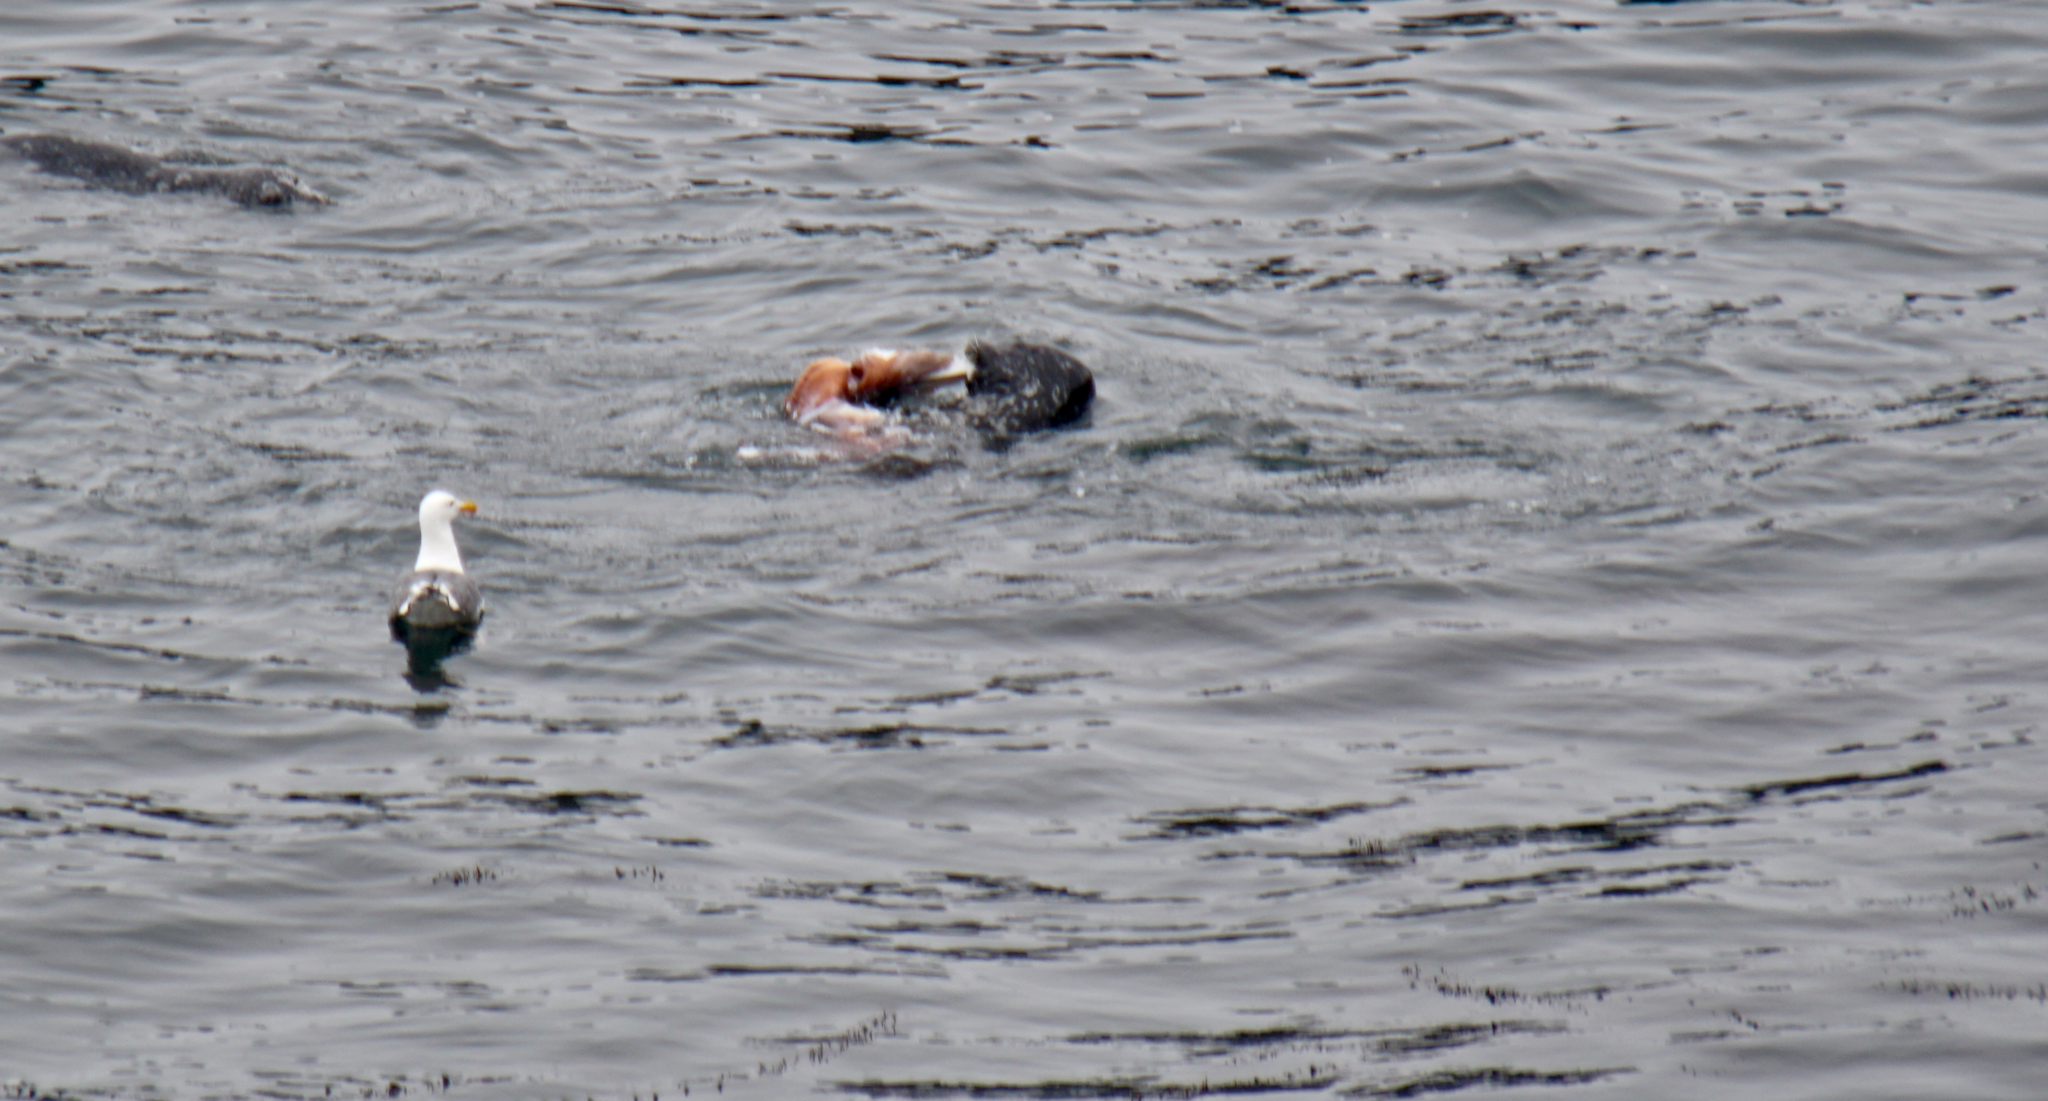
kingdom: Animalia
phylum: Chordata
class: Mammalia
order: Carnivora
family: Phocidae
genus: Phoca
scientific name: Phoca vitulina
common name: Harbor seal
